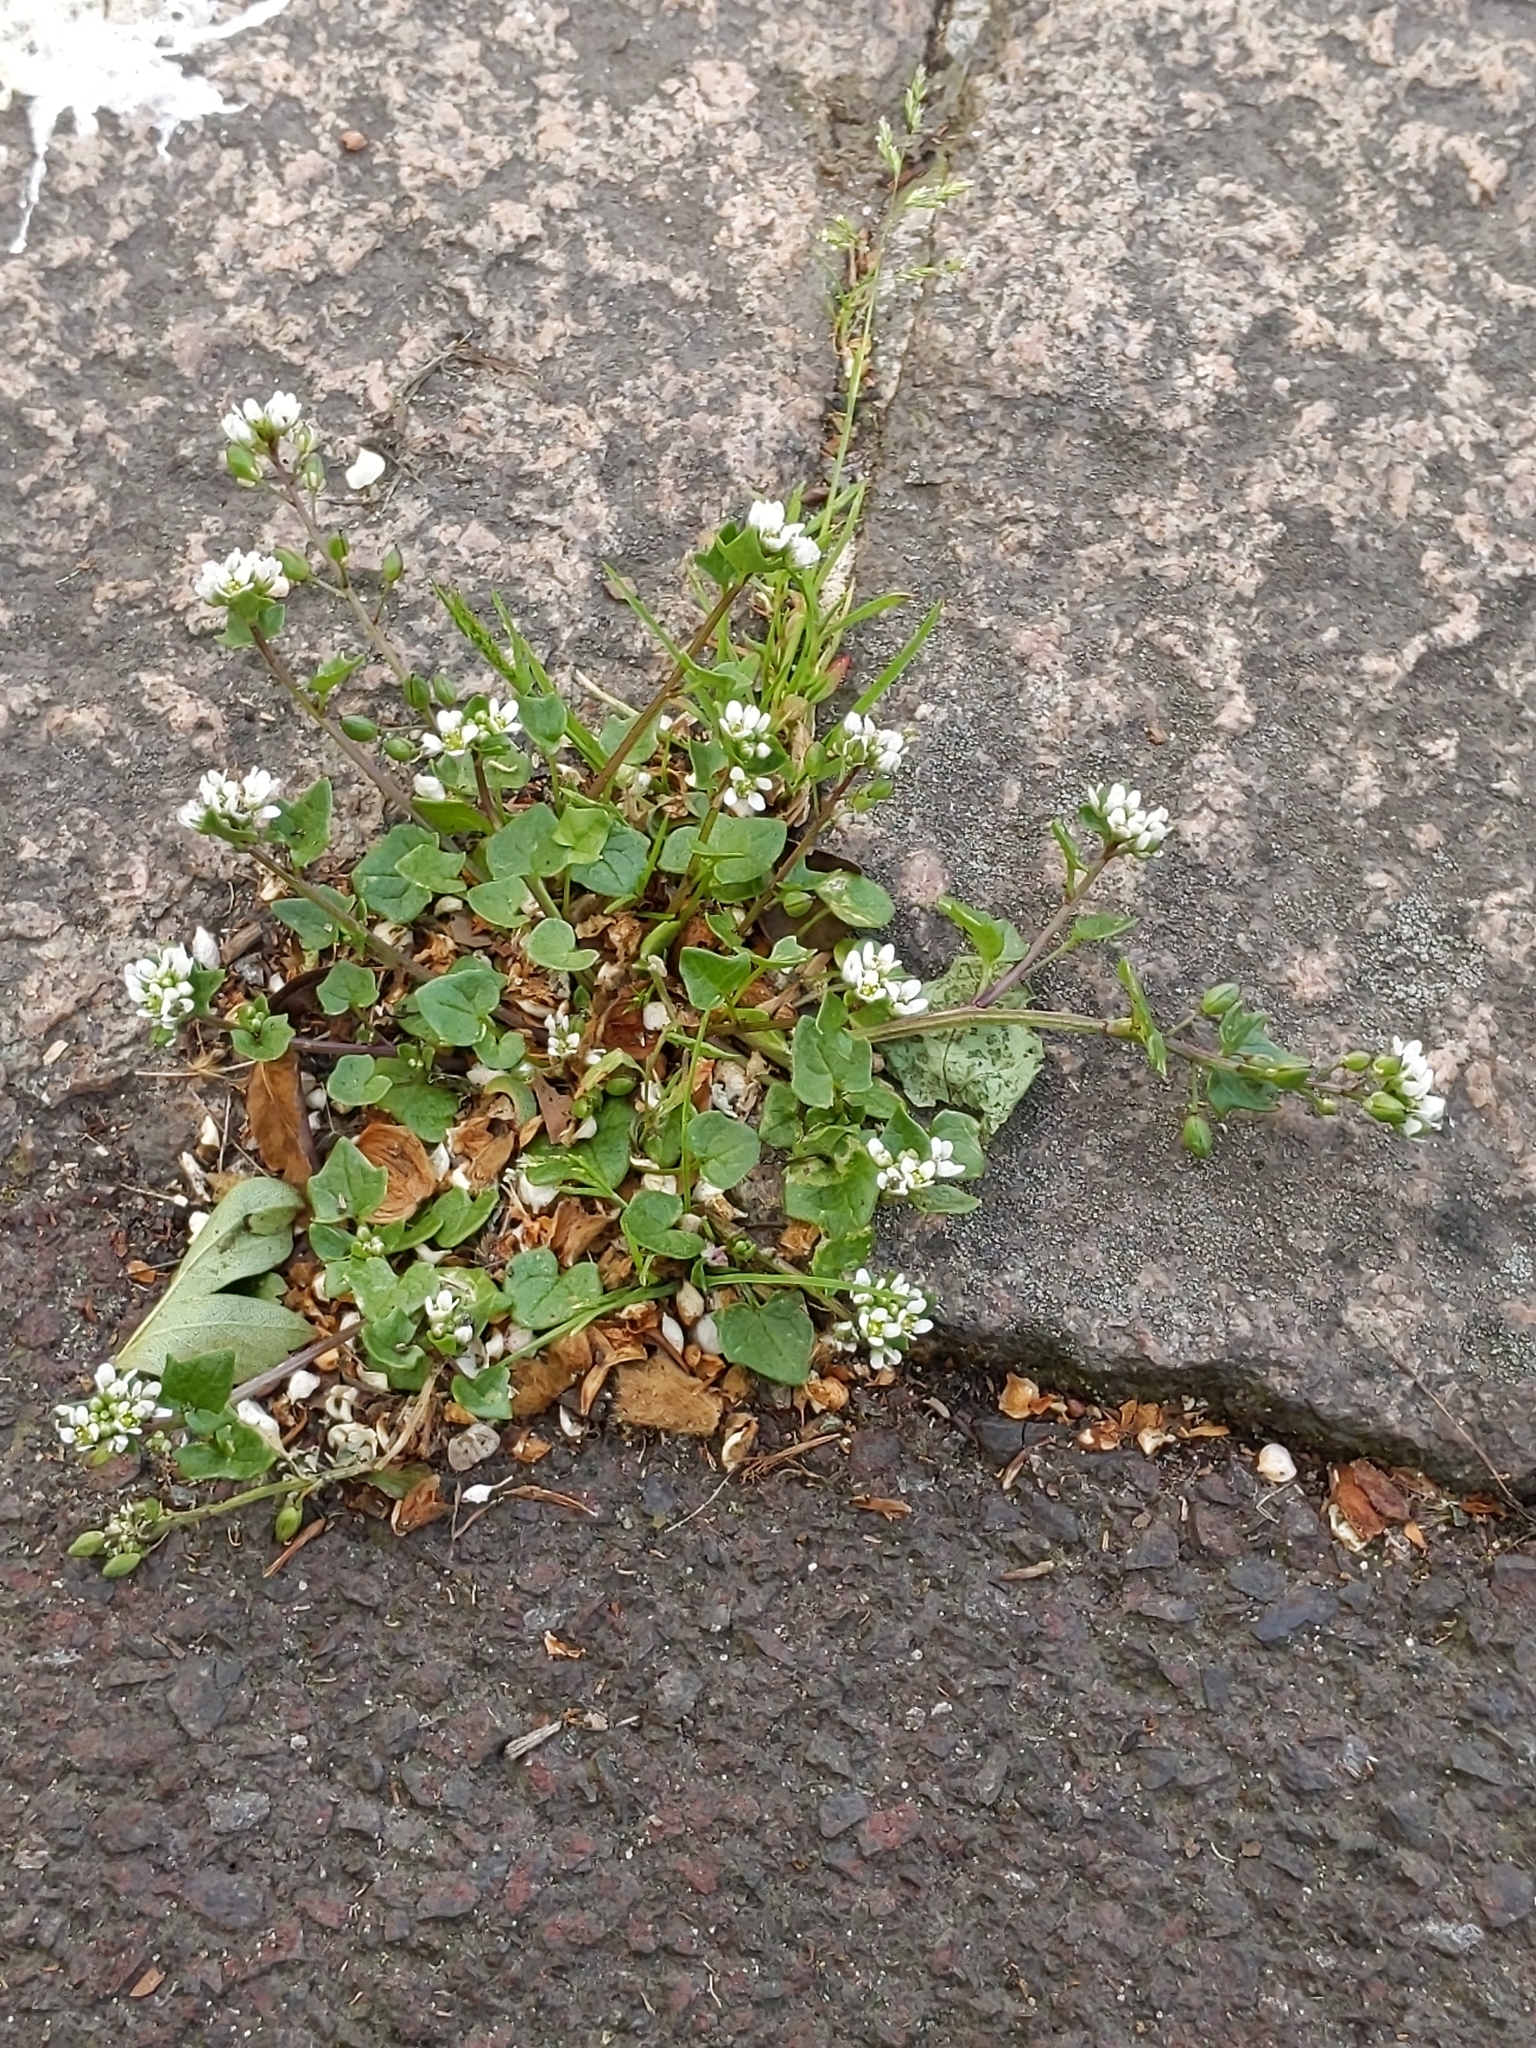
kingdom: Plantae
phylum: Tracheophyta
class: Magnoliopsida
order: Brassicales
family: Brassicaceae
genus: Cochlearia
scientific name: Cochlearia danica
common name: Early scurvygrass
